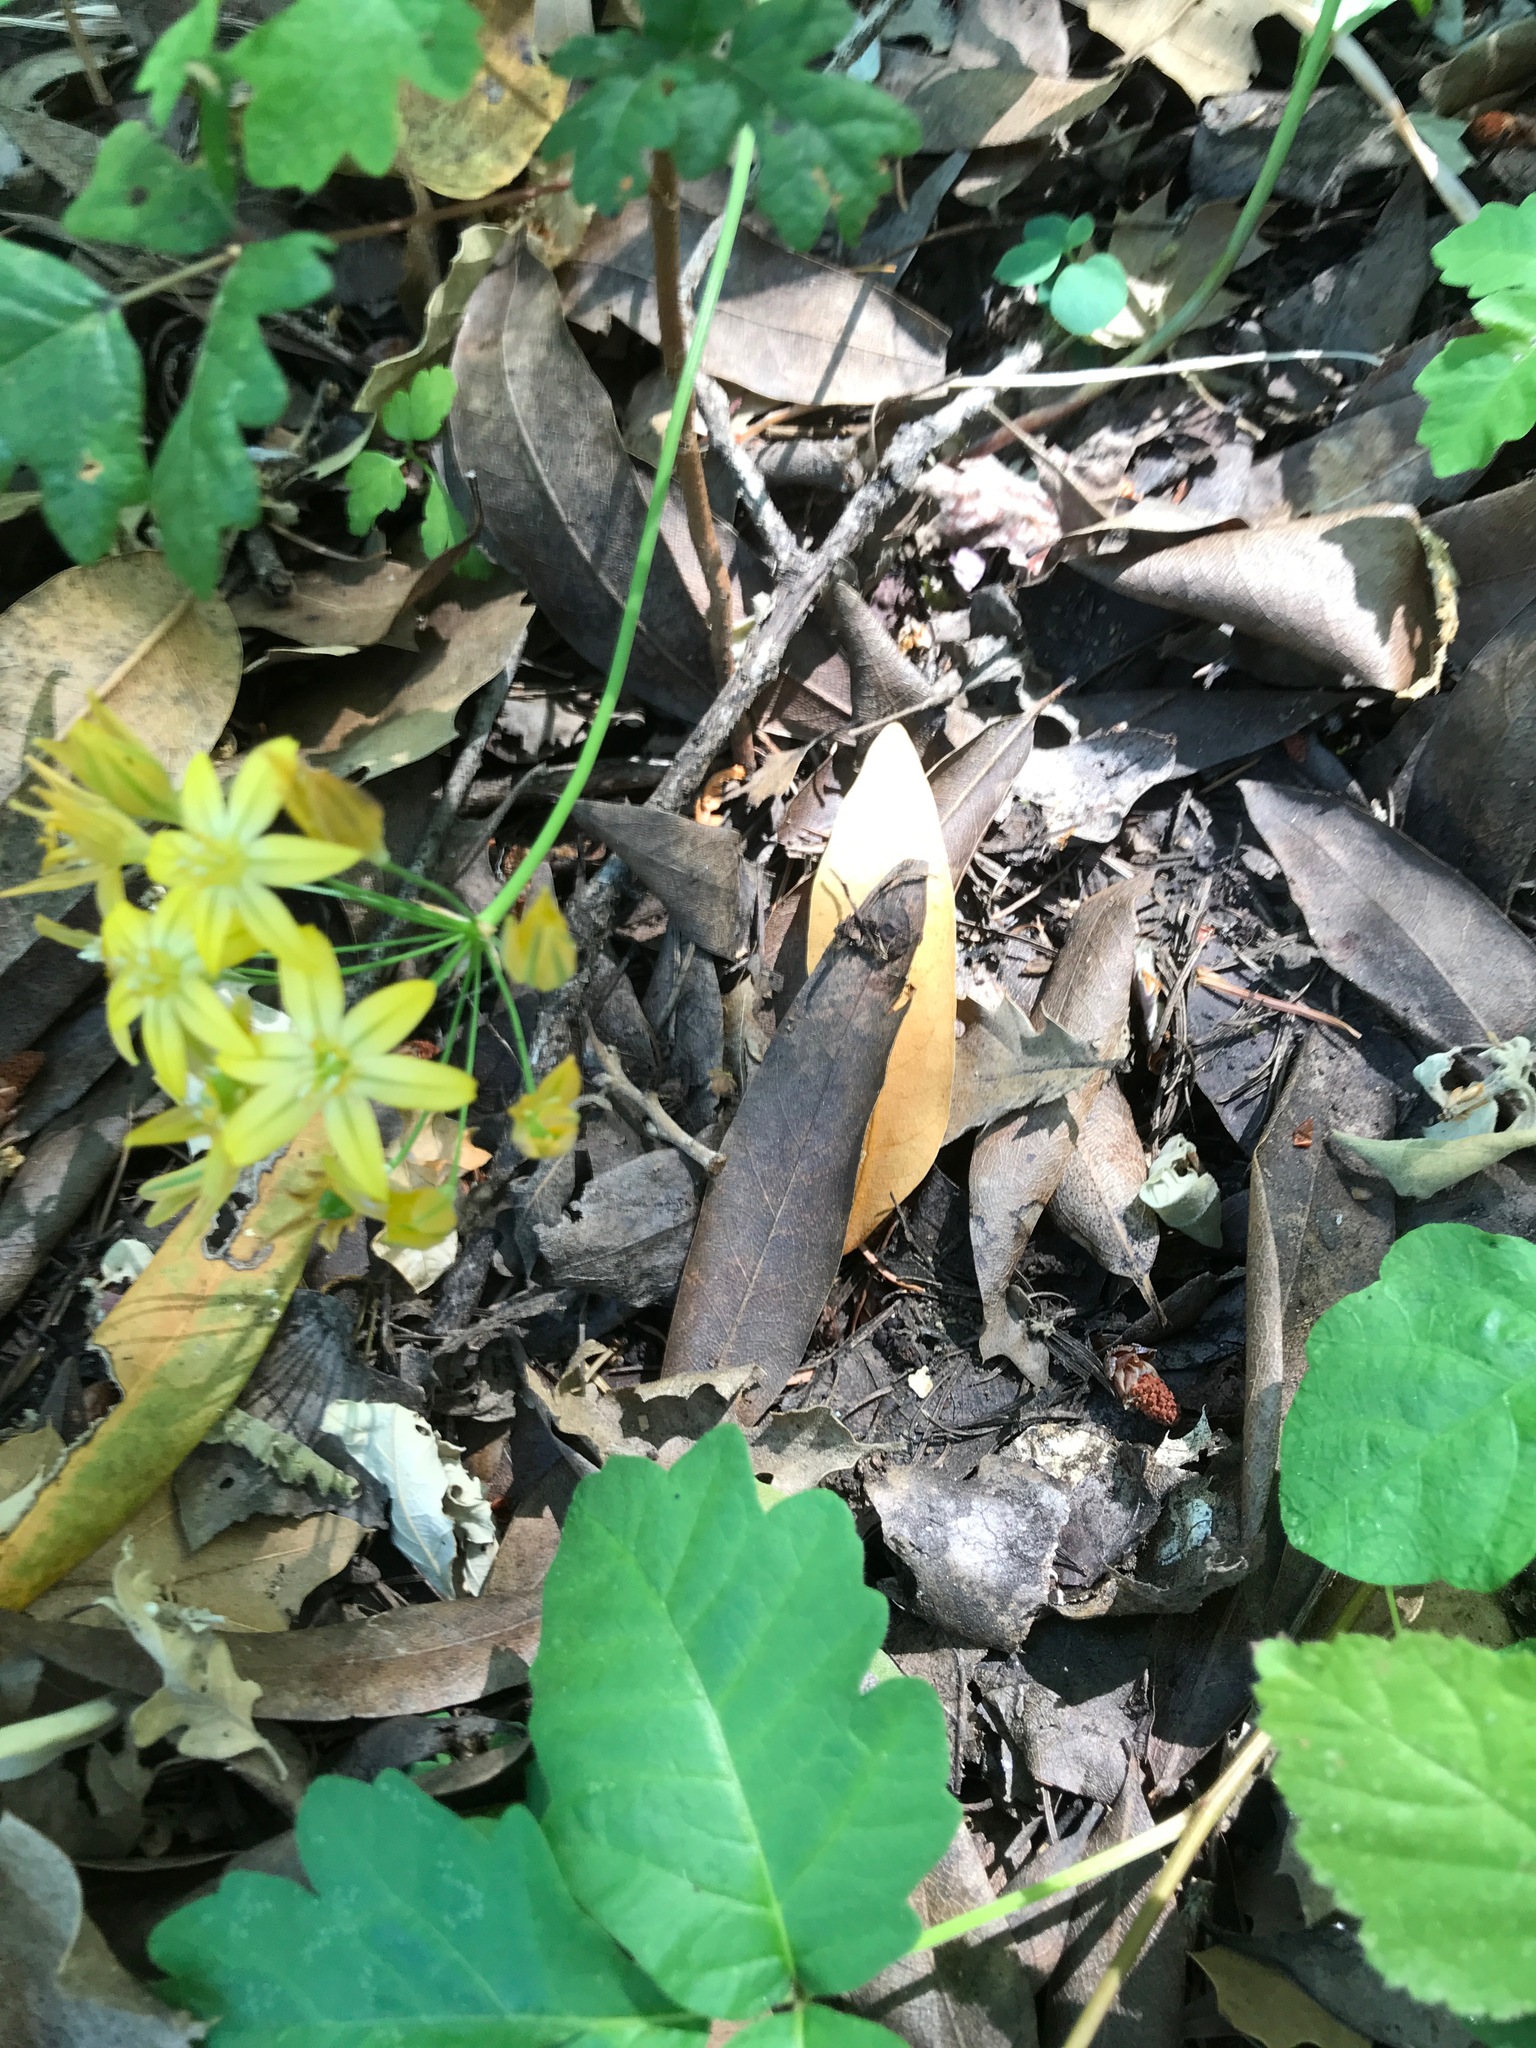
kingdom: Plantae
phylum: Tracheophyta
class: Liliopsida
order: Asparagales
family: Asparagaceae
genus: Triteleia
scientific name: Triteleia ixioides
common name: Yellow-brodiaea
